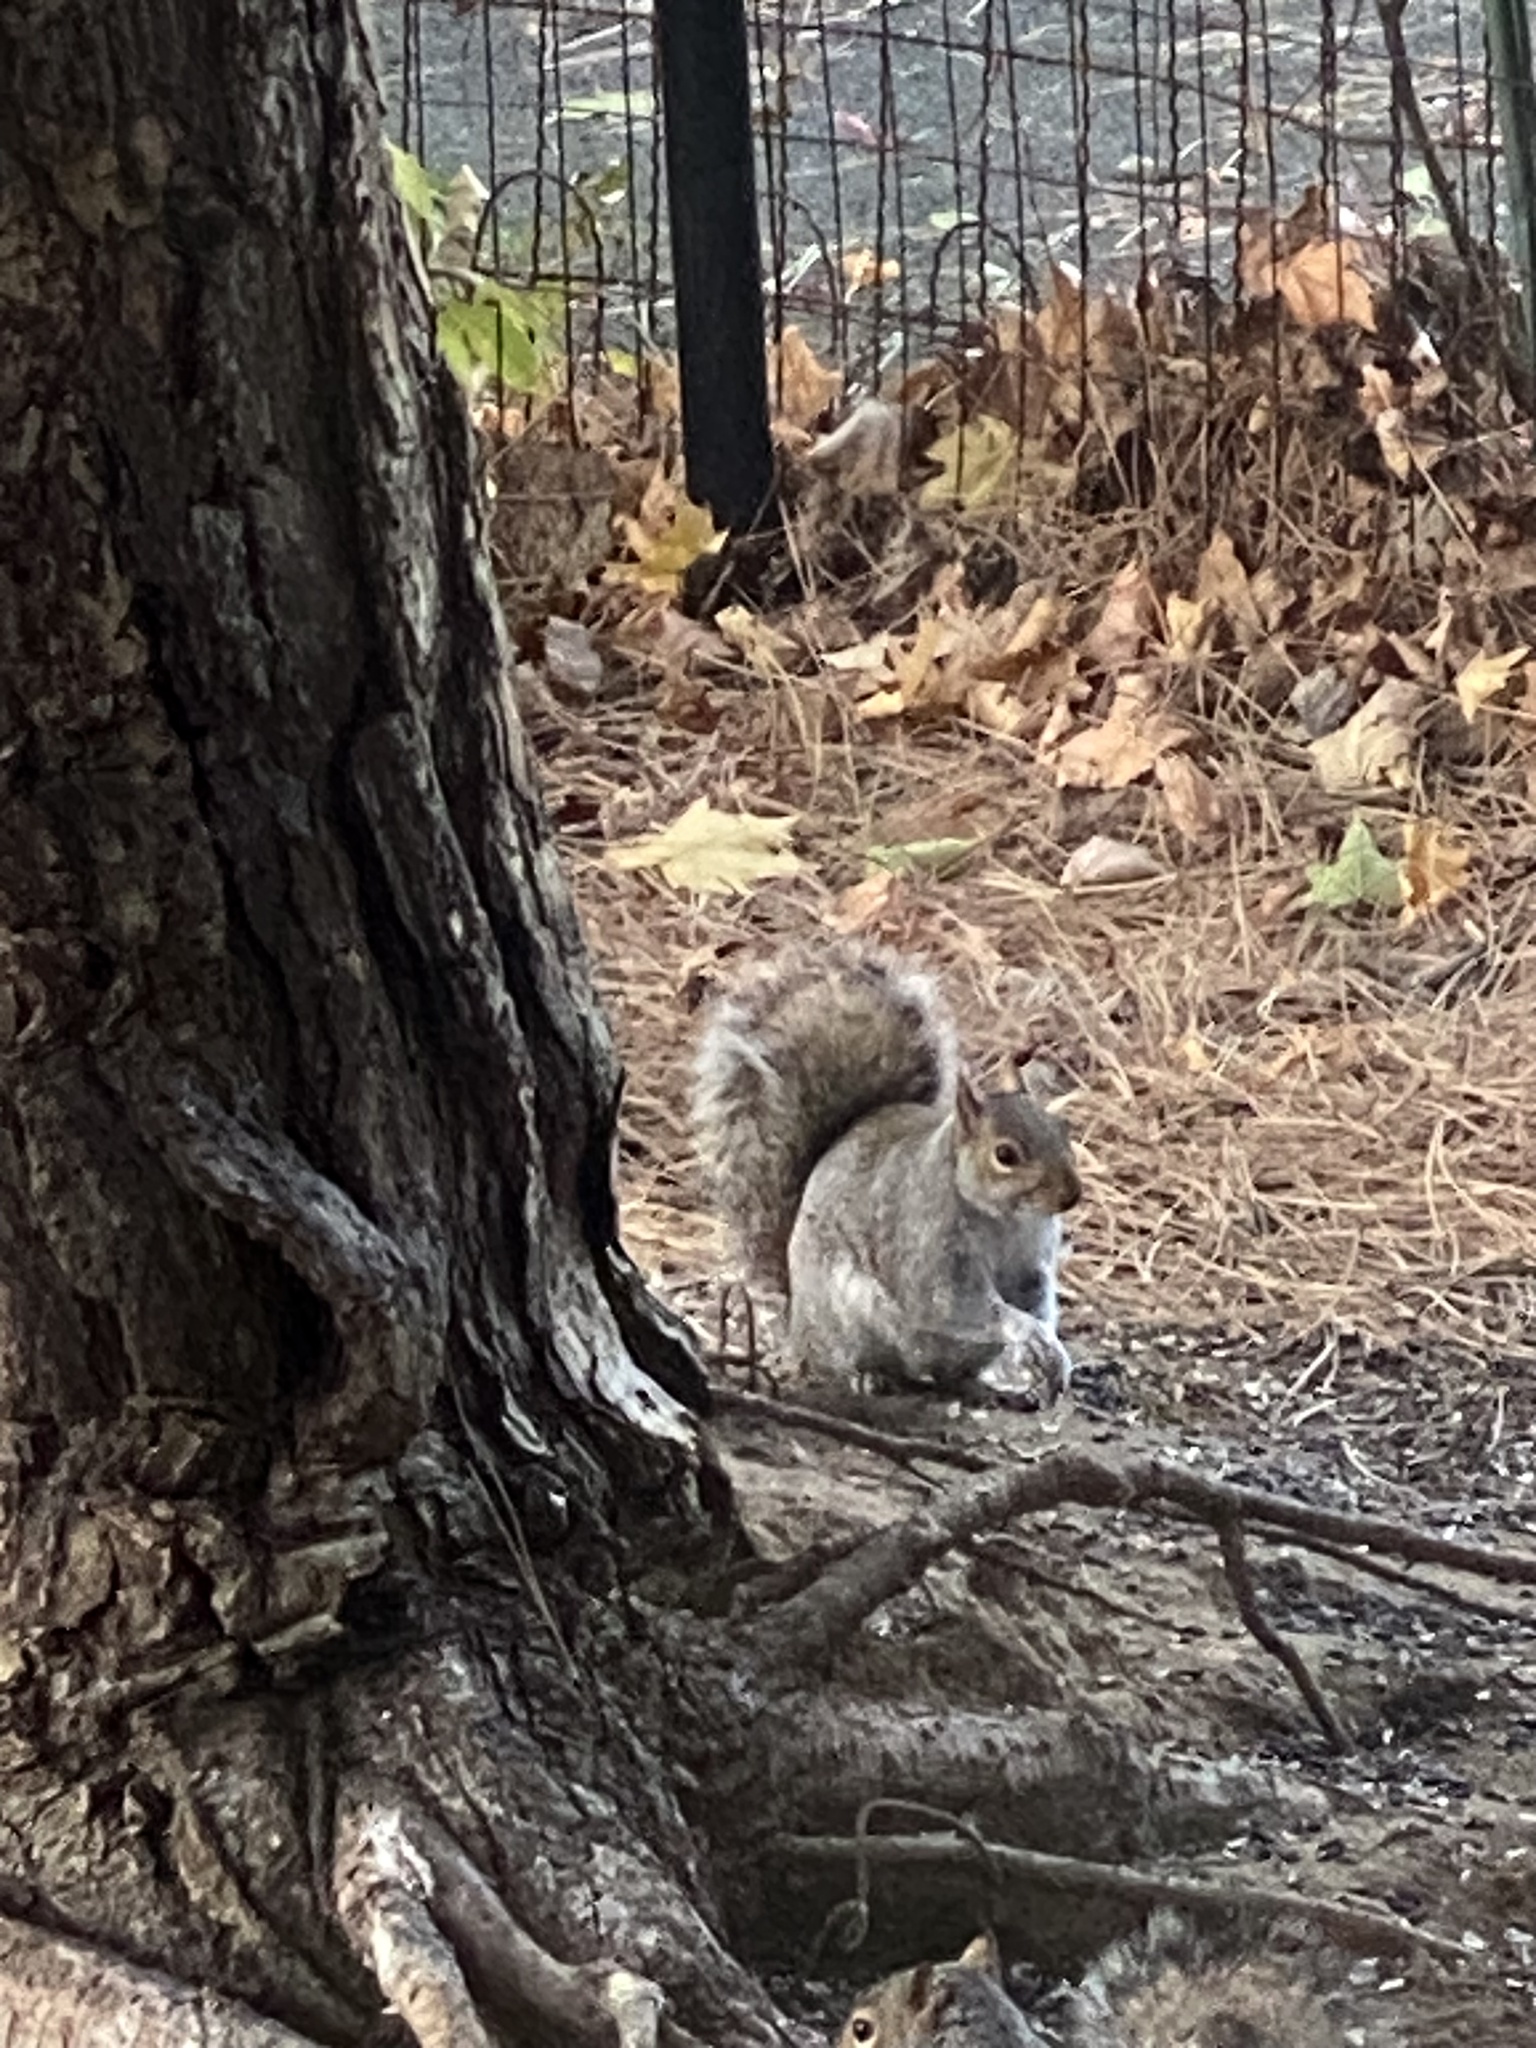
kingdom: Animalia
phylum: Chordata
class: Mammalia
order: Rodentia
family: Sciuridae
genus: Sciurus
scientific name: Sciurus carolinensis
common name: Eastern gray squirrel
